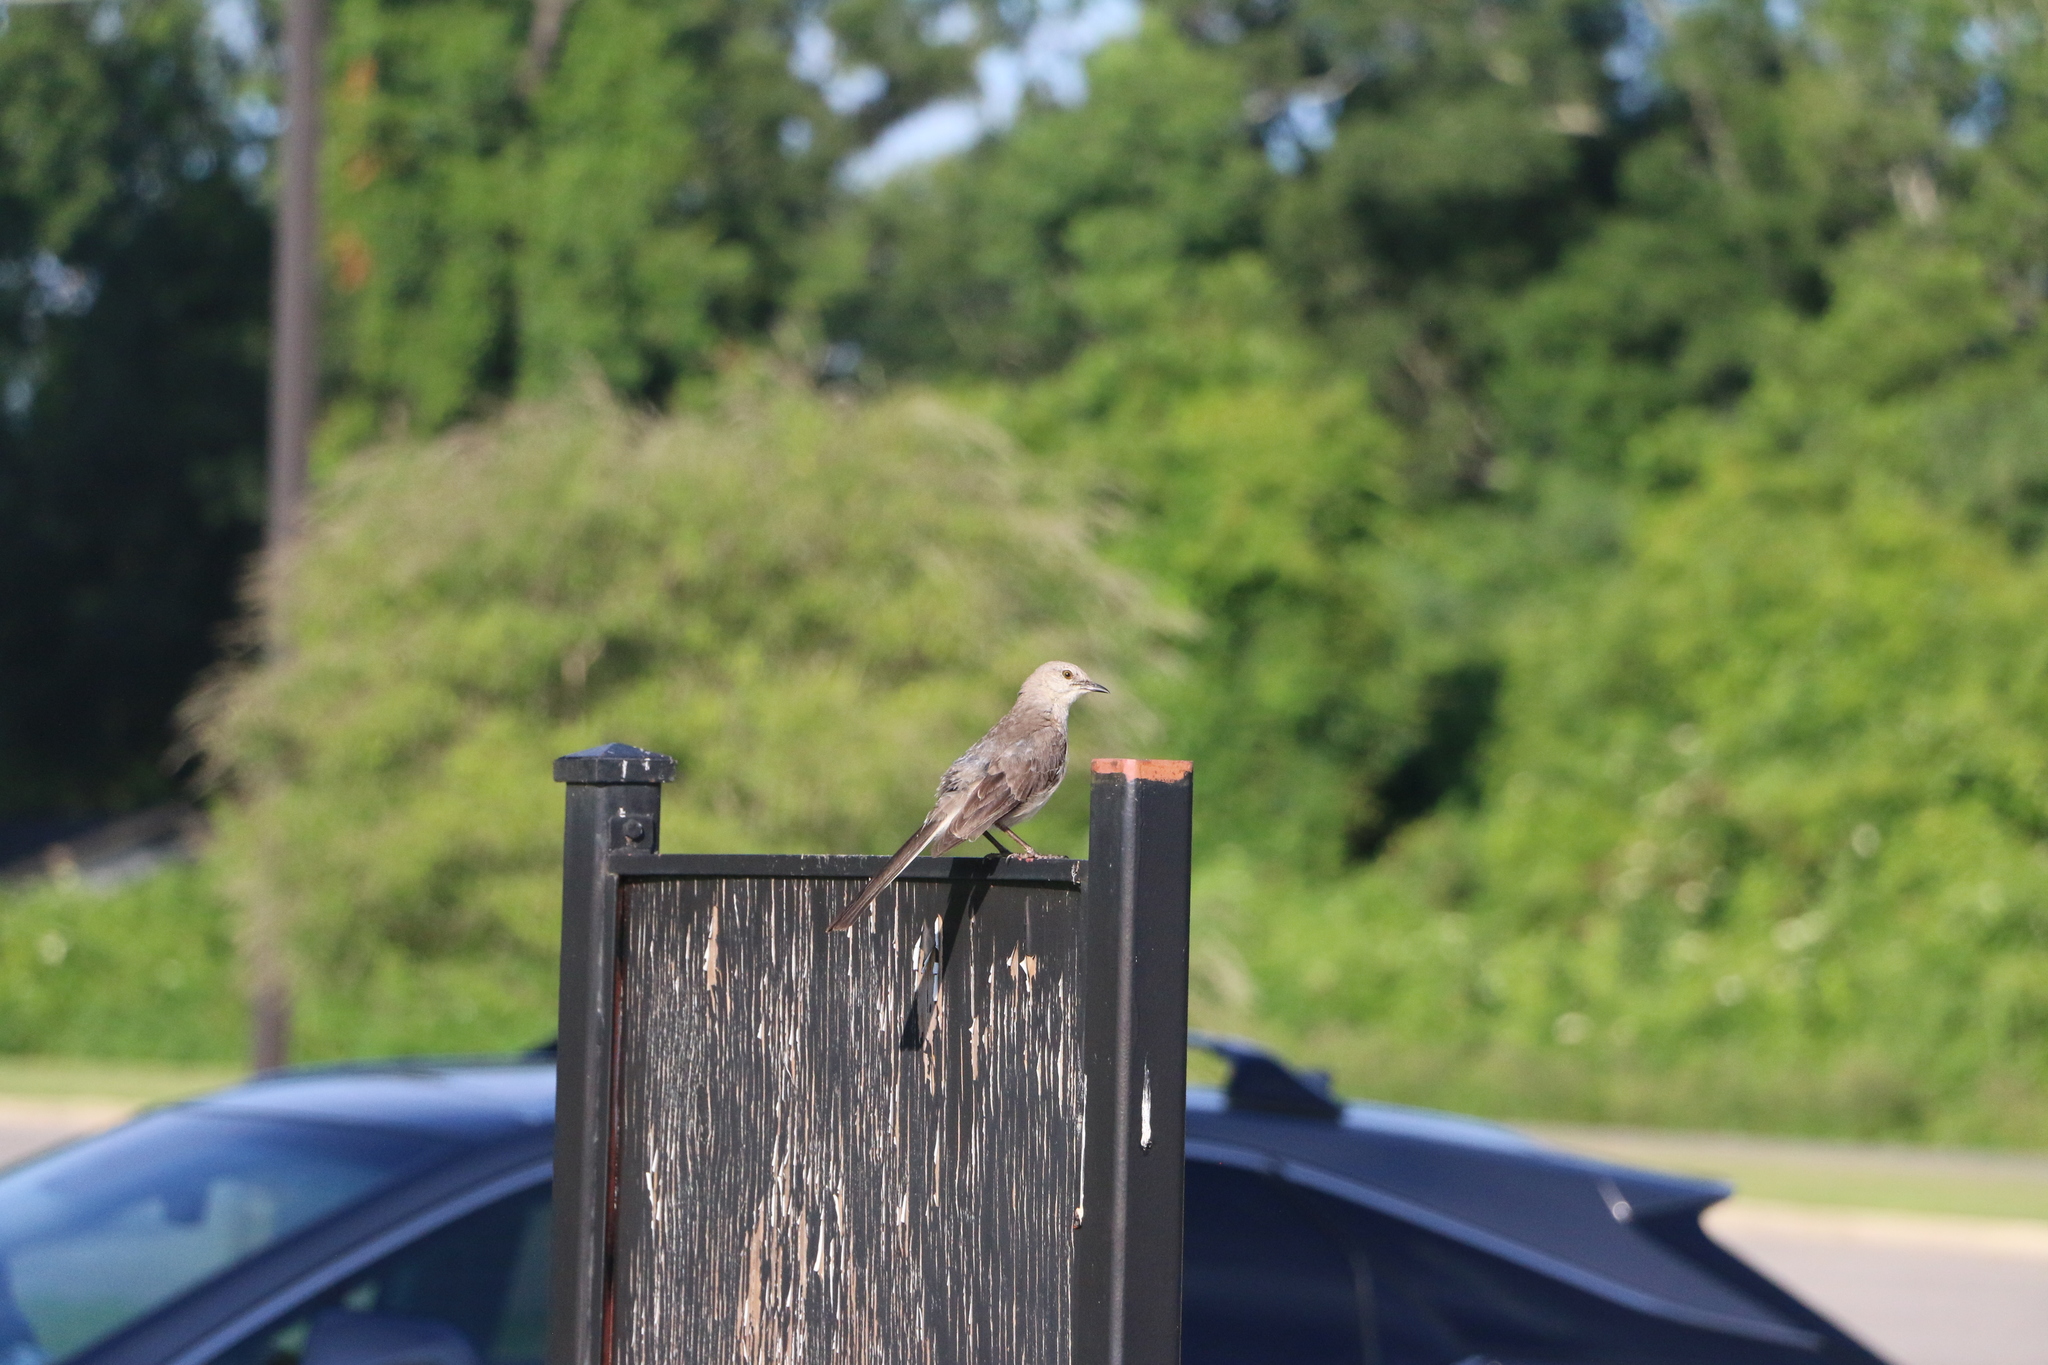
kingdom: Animalia
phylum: Chordata
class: Aves
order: Passeriformes
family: Mimidae
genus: Mimus
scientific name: Mimus polyglottos
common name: Northern mockingbird
